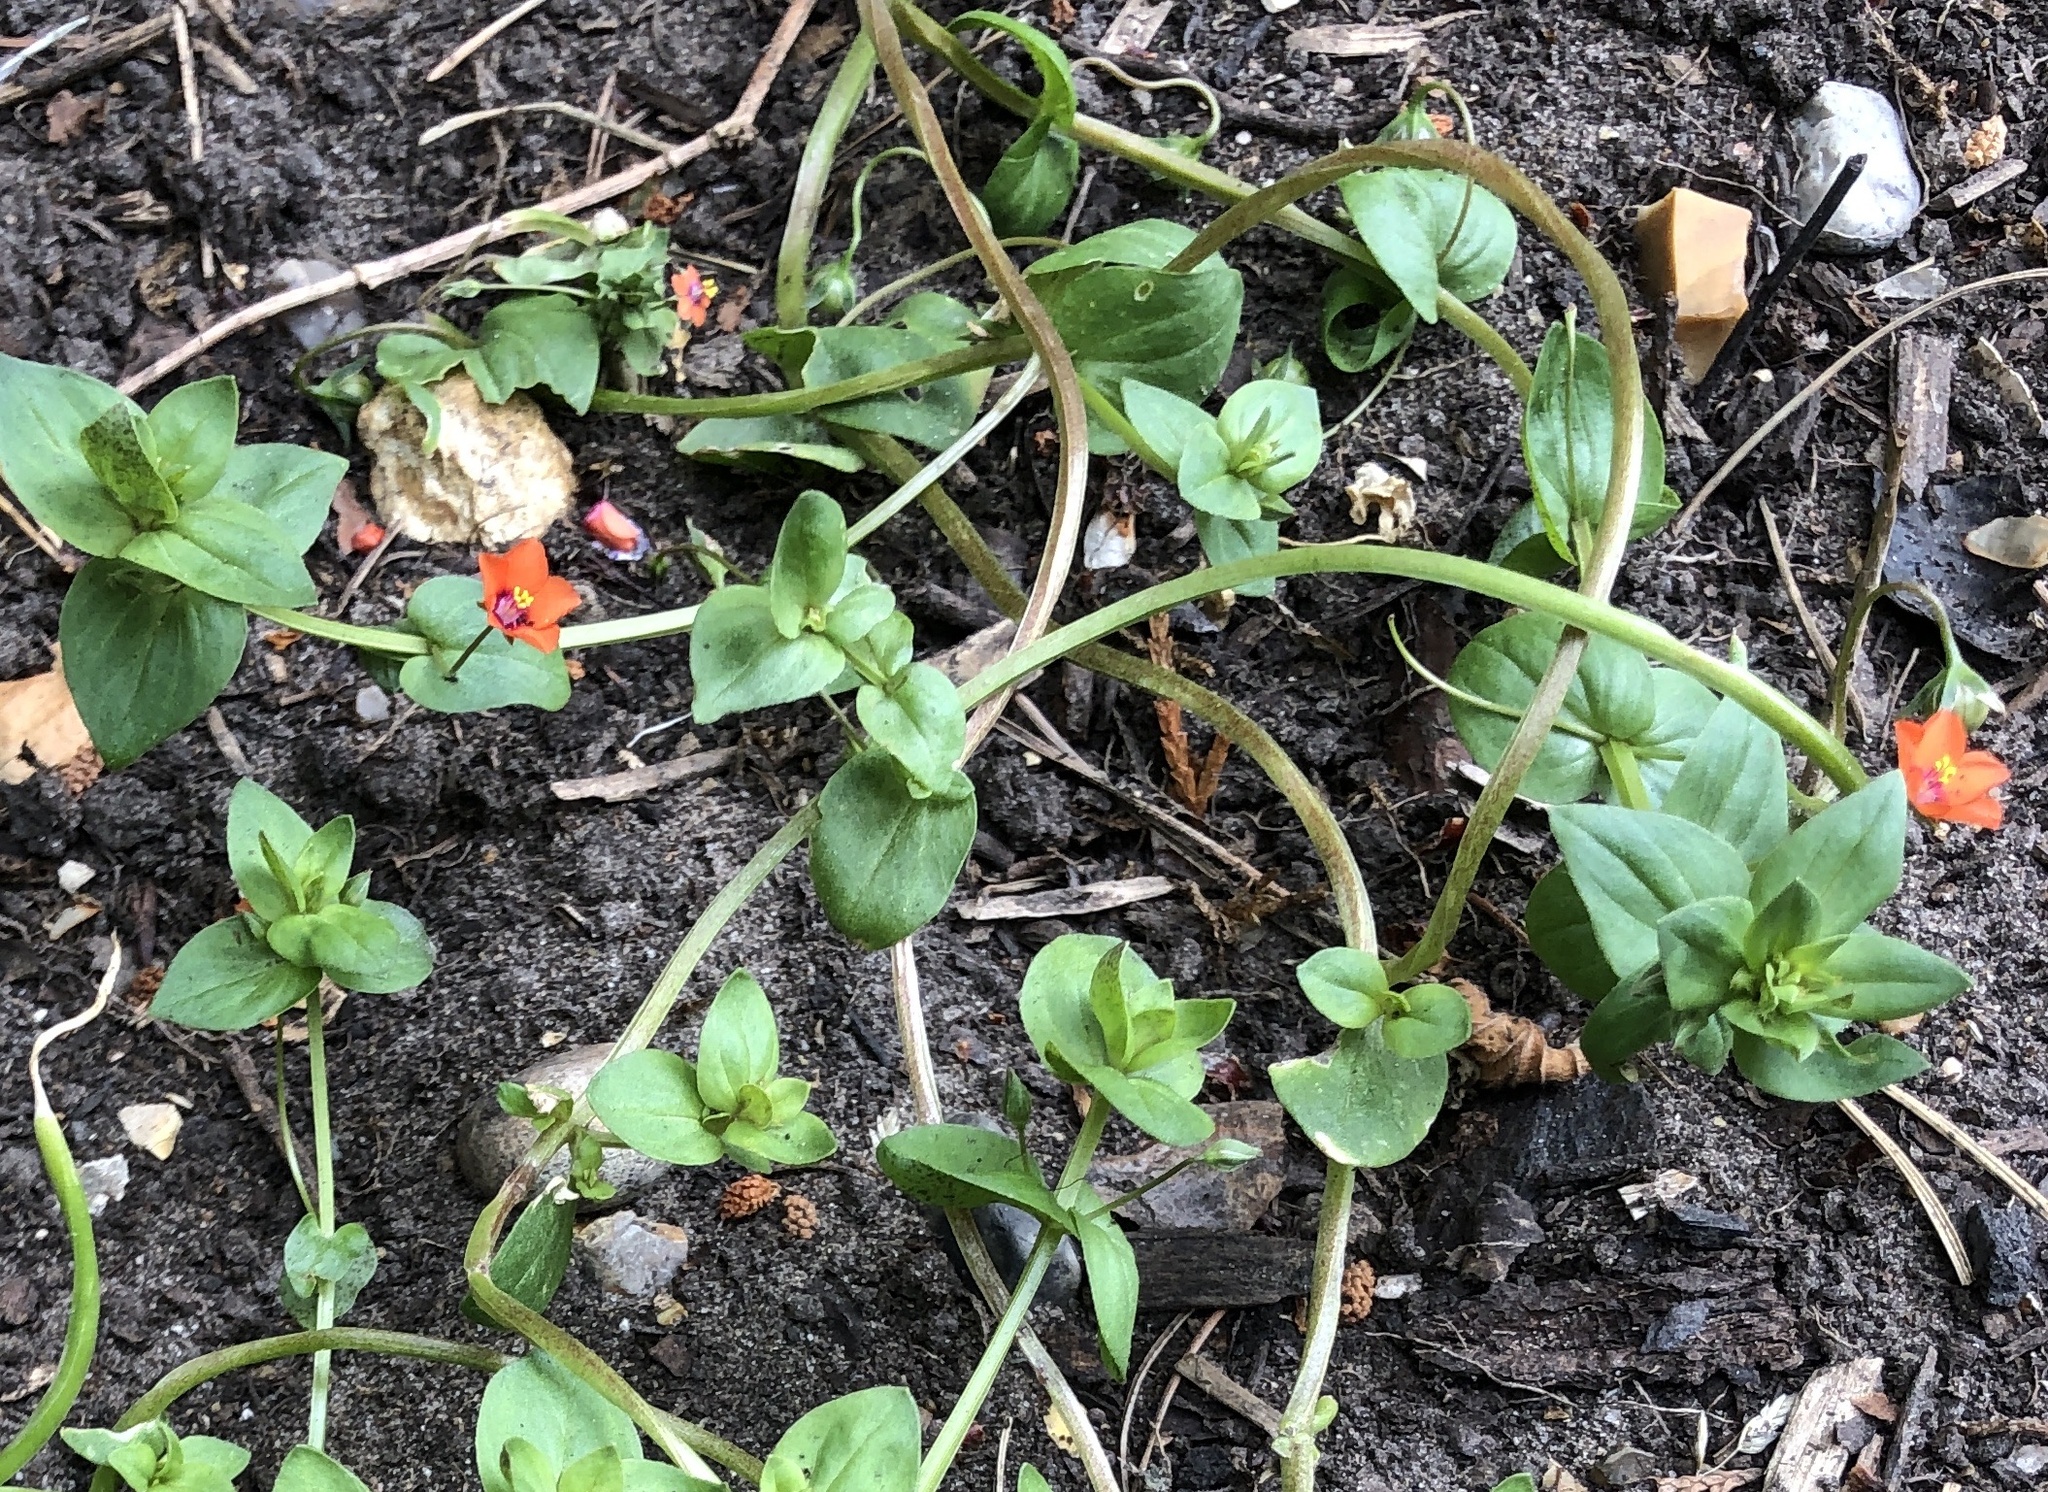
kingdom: Plantae
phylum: Tracheophyta
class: Magnoliopsida
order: Ericales
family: Primulaceae
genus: Lysimachia
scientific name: Lysimachia arvensis
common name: Scarlet pimpernel
